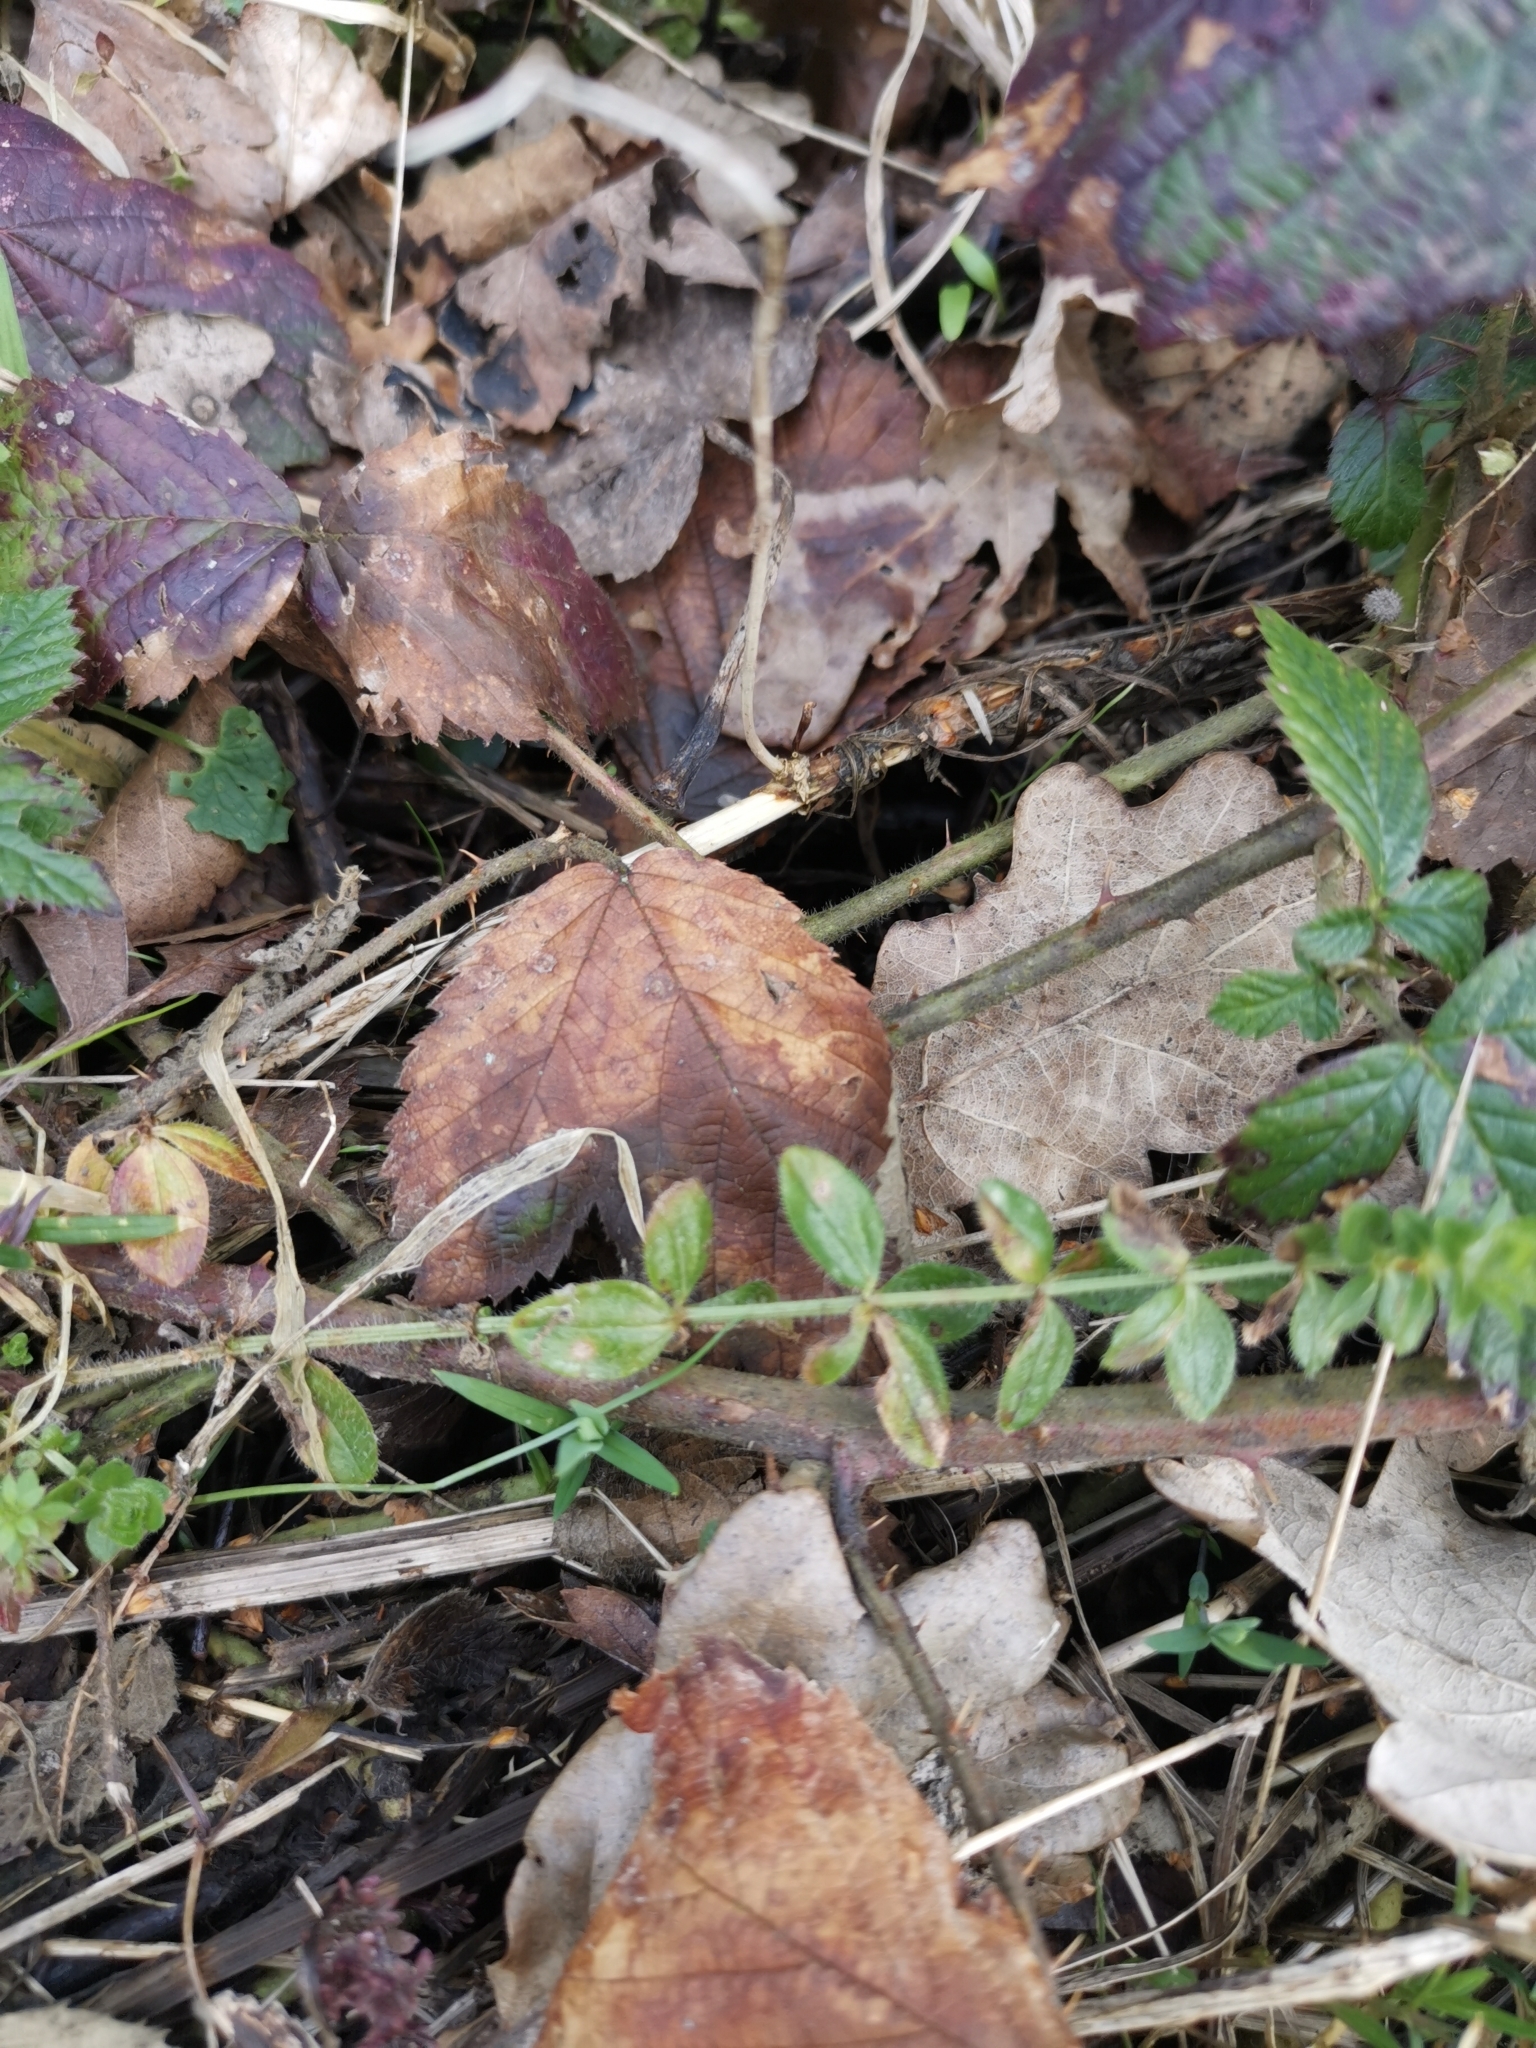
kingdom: Plantae
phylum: Tracheophyta
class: Magnoliopsida
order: Gentianales
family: Rubiaceae
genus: Cruciata
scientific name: Cruciata laevipes
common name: Crosswort
